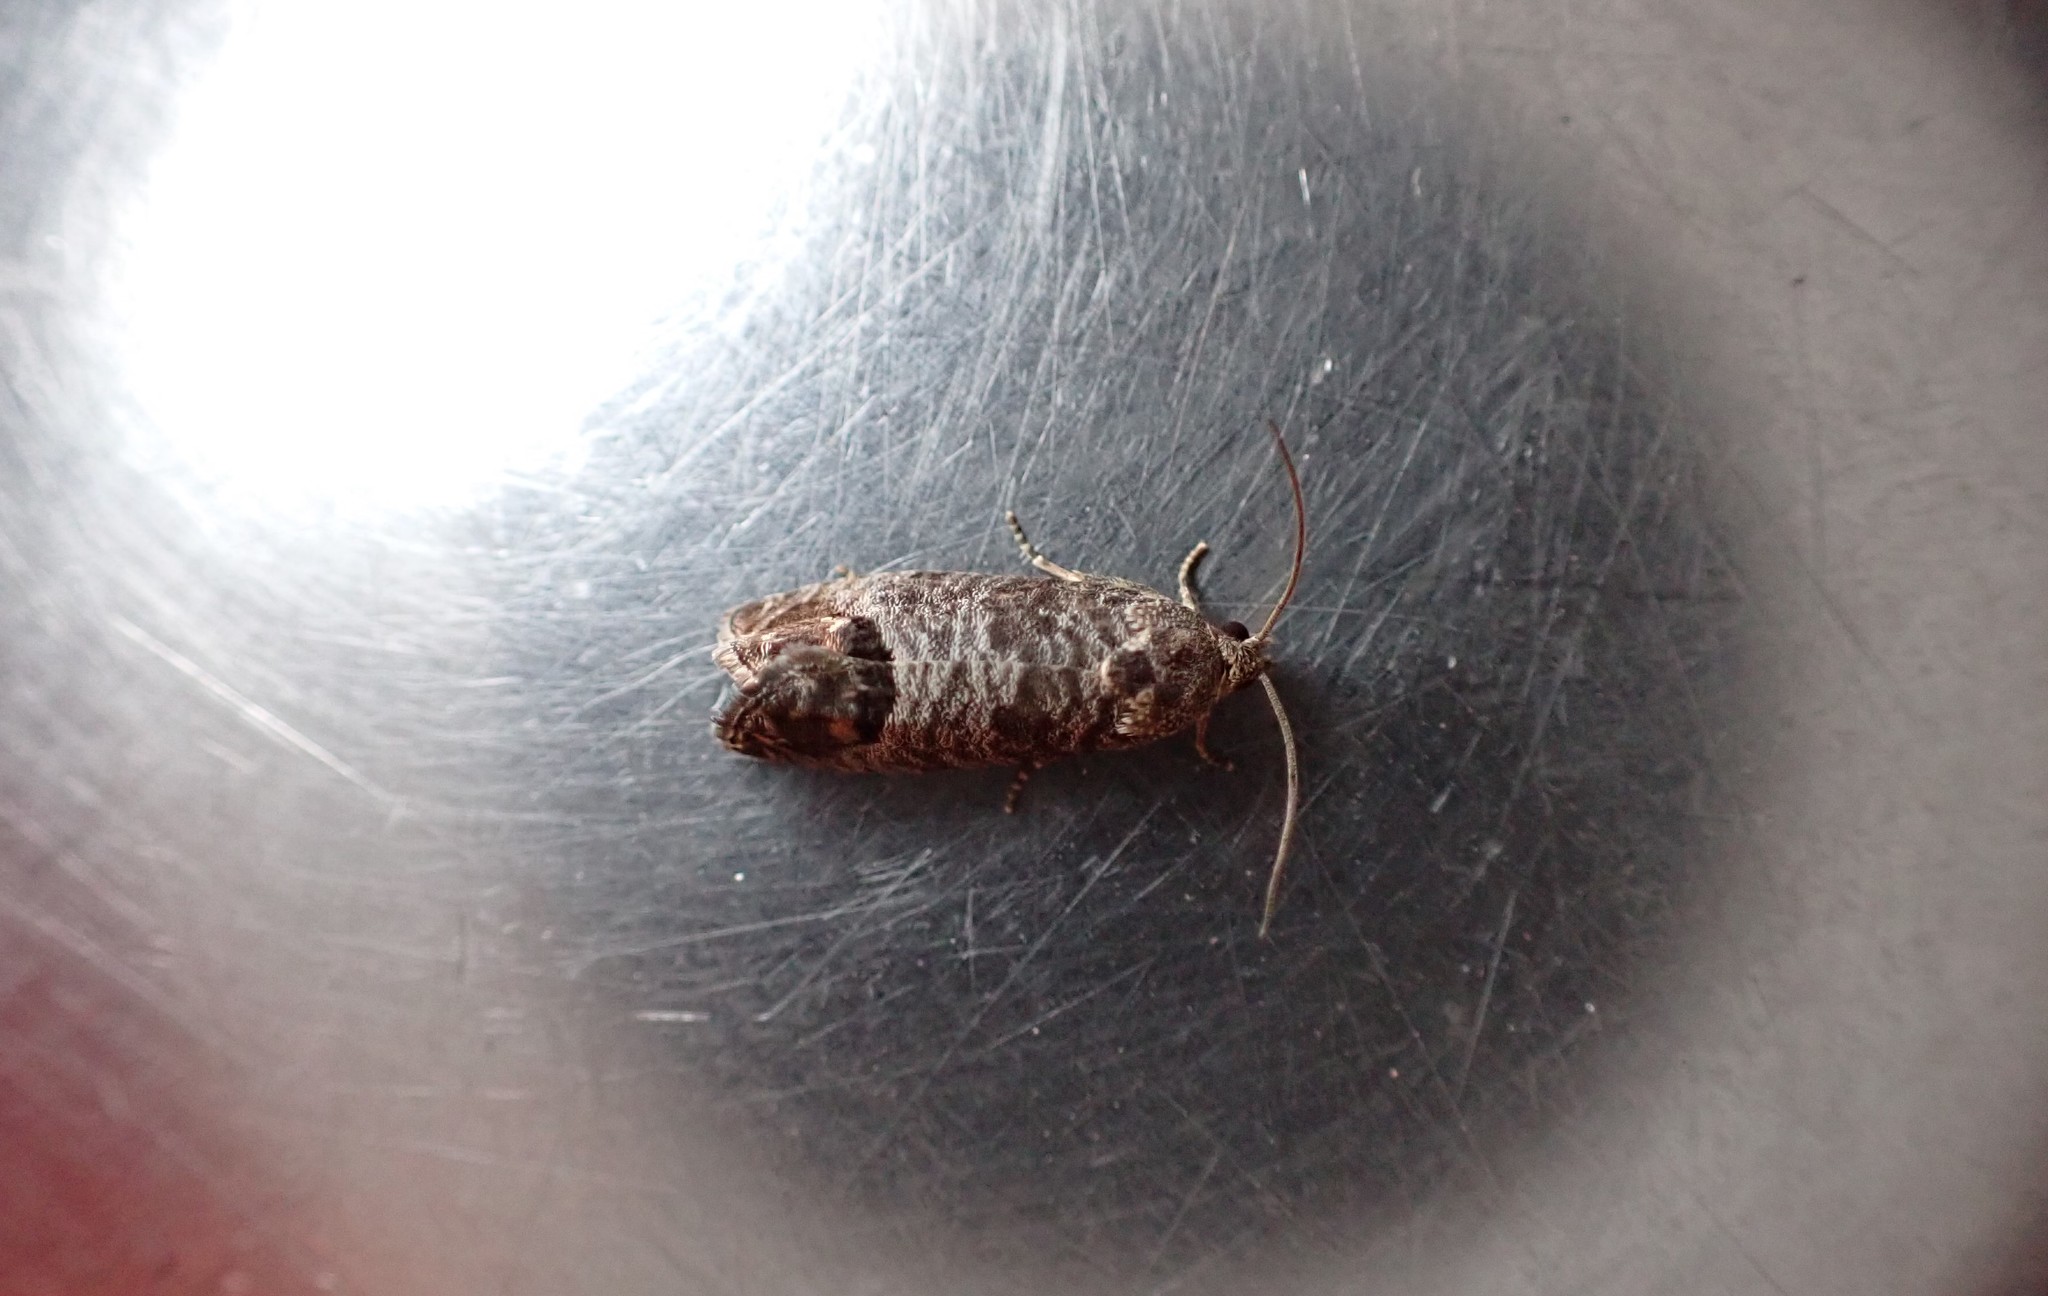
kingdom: Animalia
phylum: Arthropoda
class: Insecta
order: Lepidoptera
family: Tortricidae
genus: Cydia
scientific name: Cydia pomonella
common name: Codling moth
